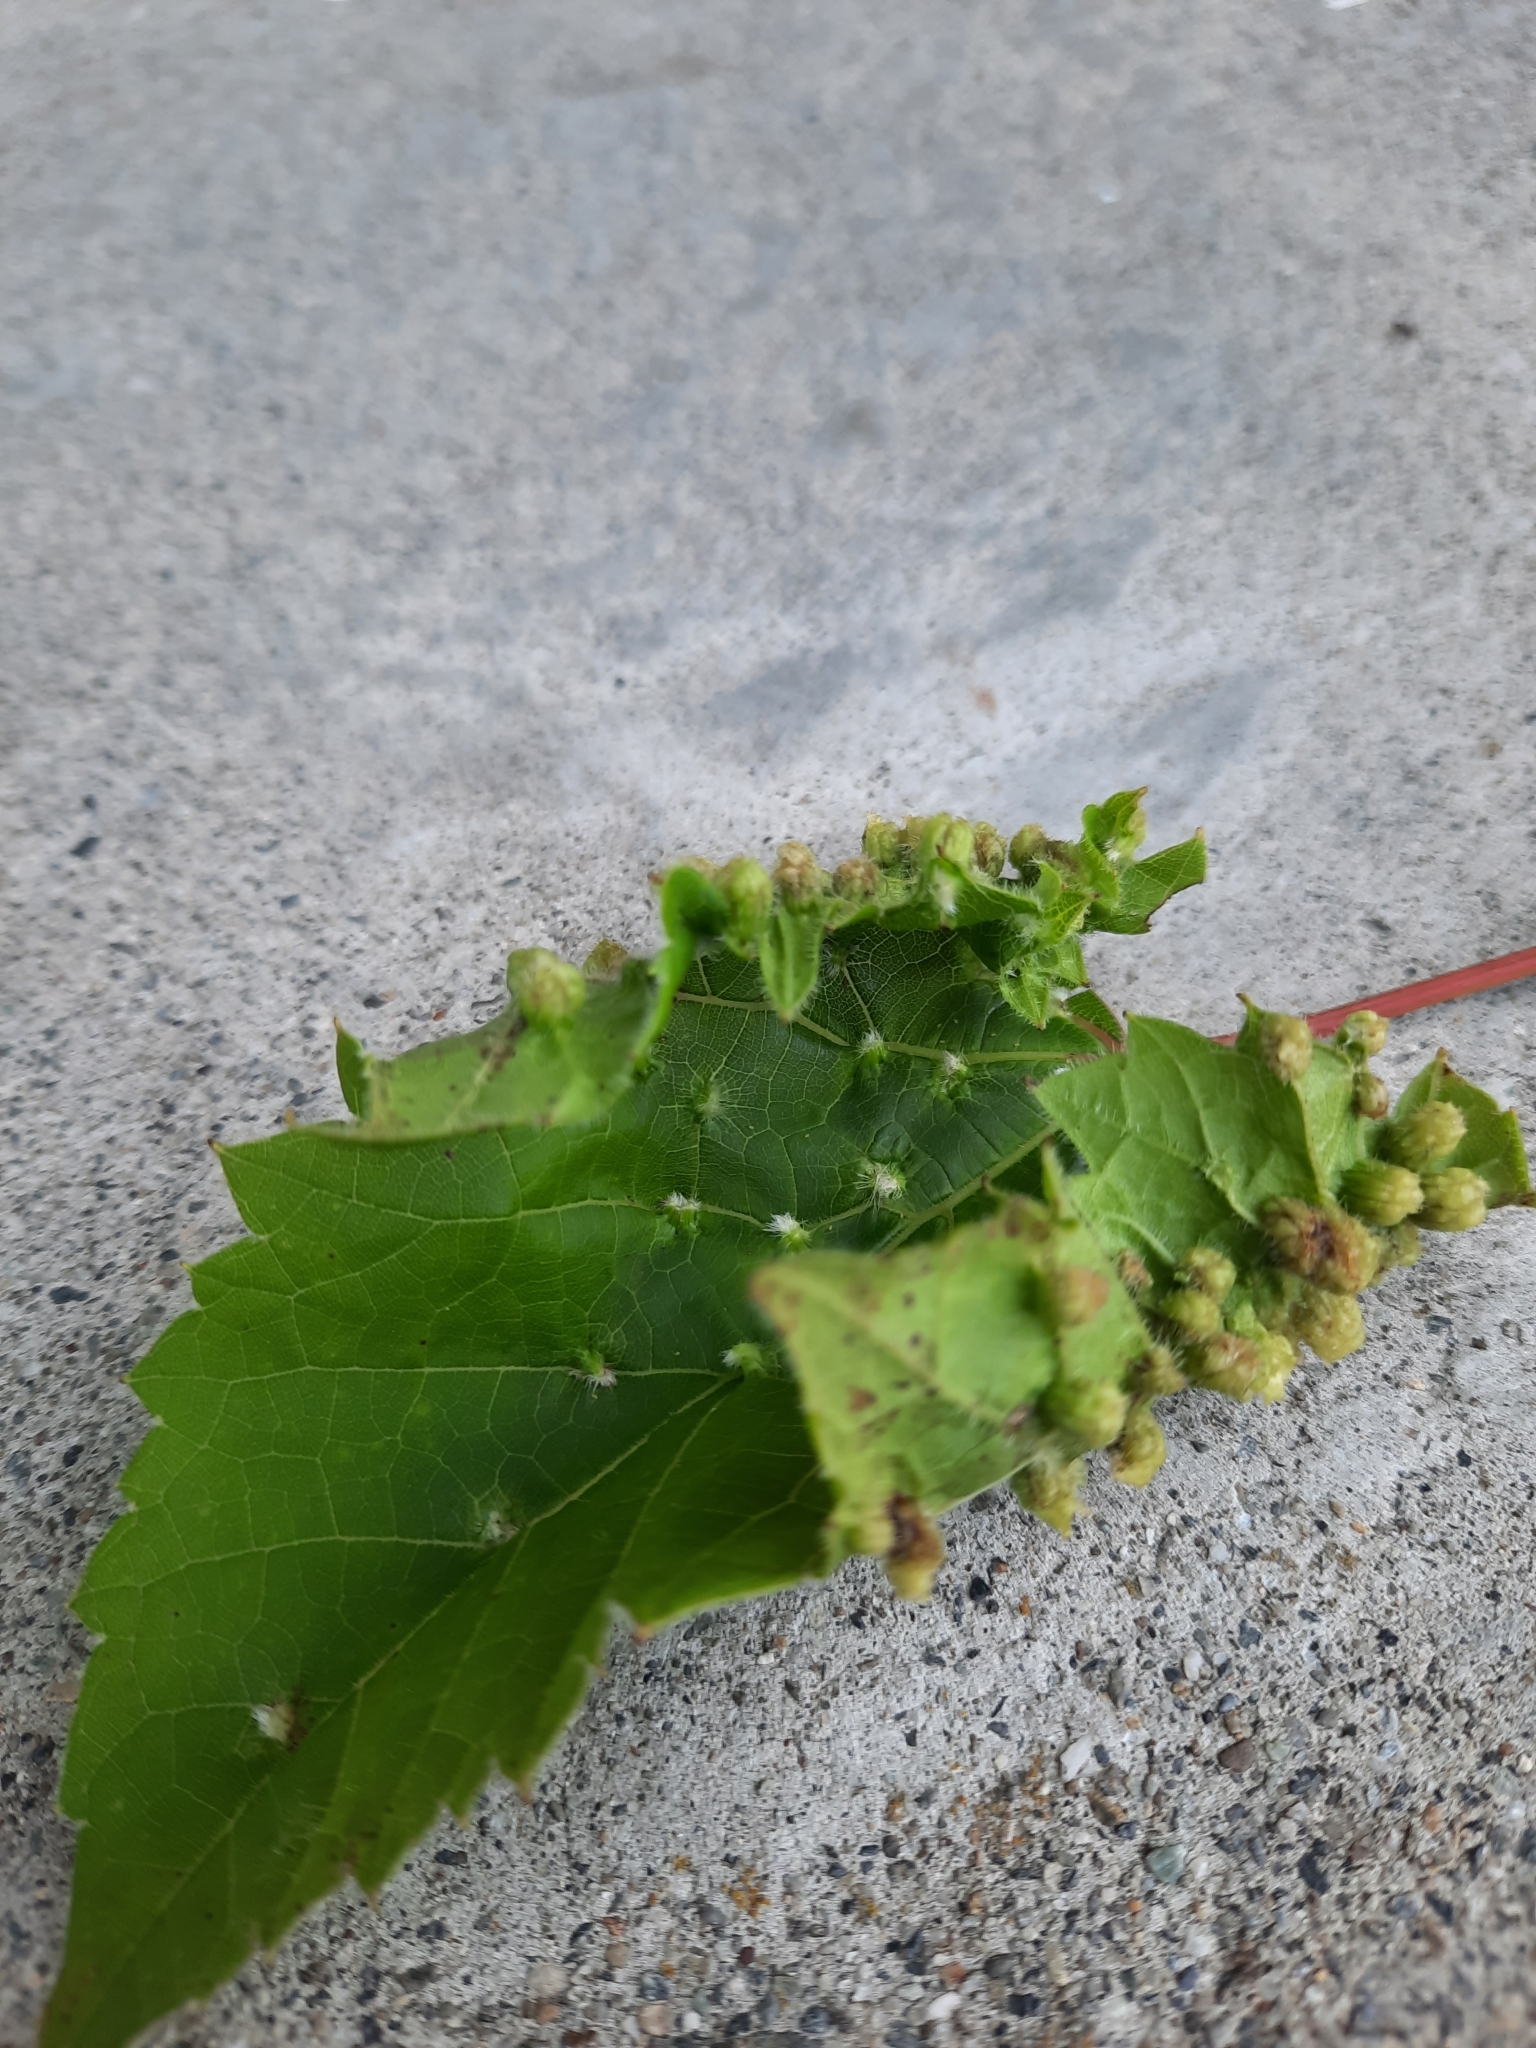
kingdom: Animalia
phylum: Arthropoda
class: Insecta
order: Hemiptera
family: Phylloxeridae
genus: Daktulosphaira
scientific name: Daktulosphaira vitifoliae
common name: Grape phylloxera
